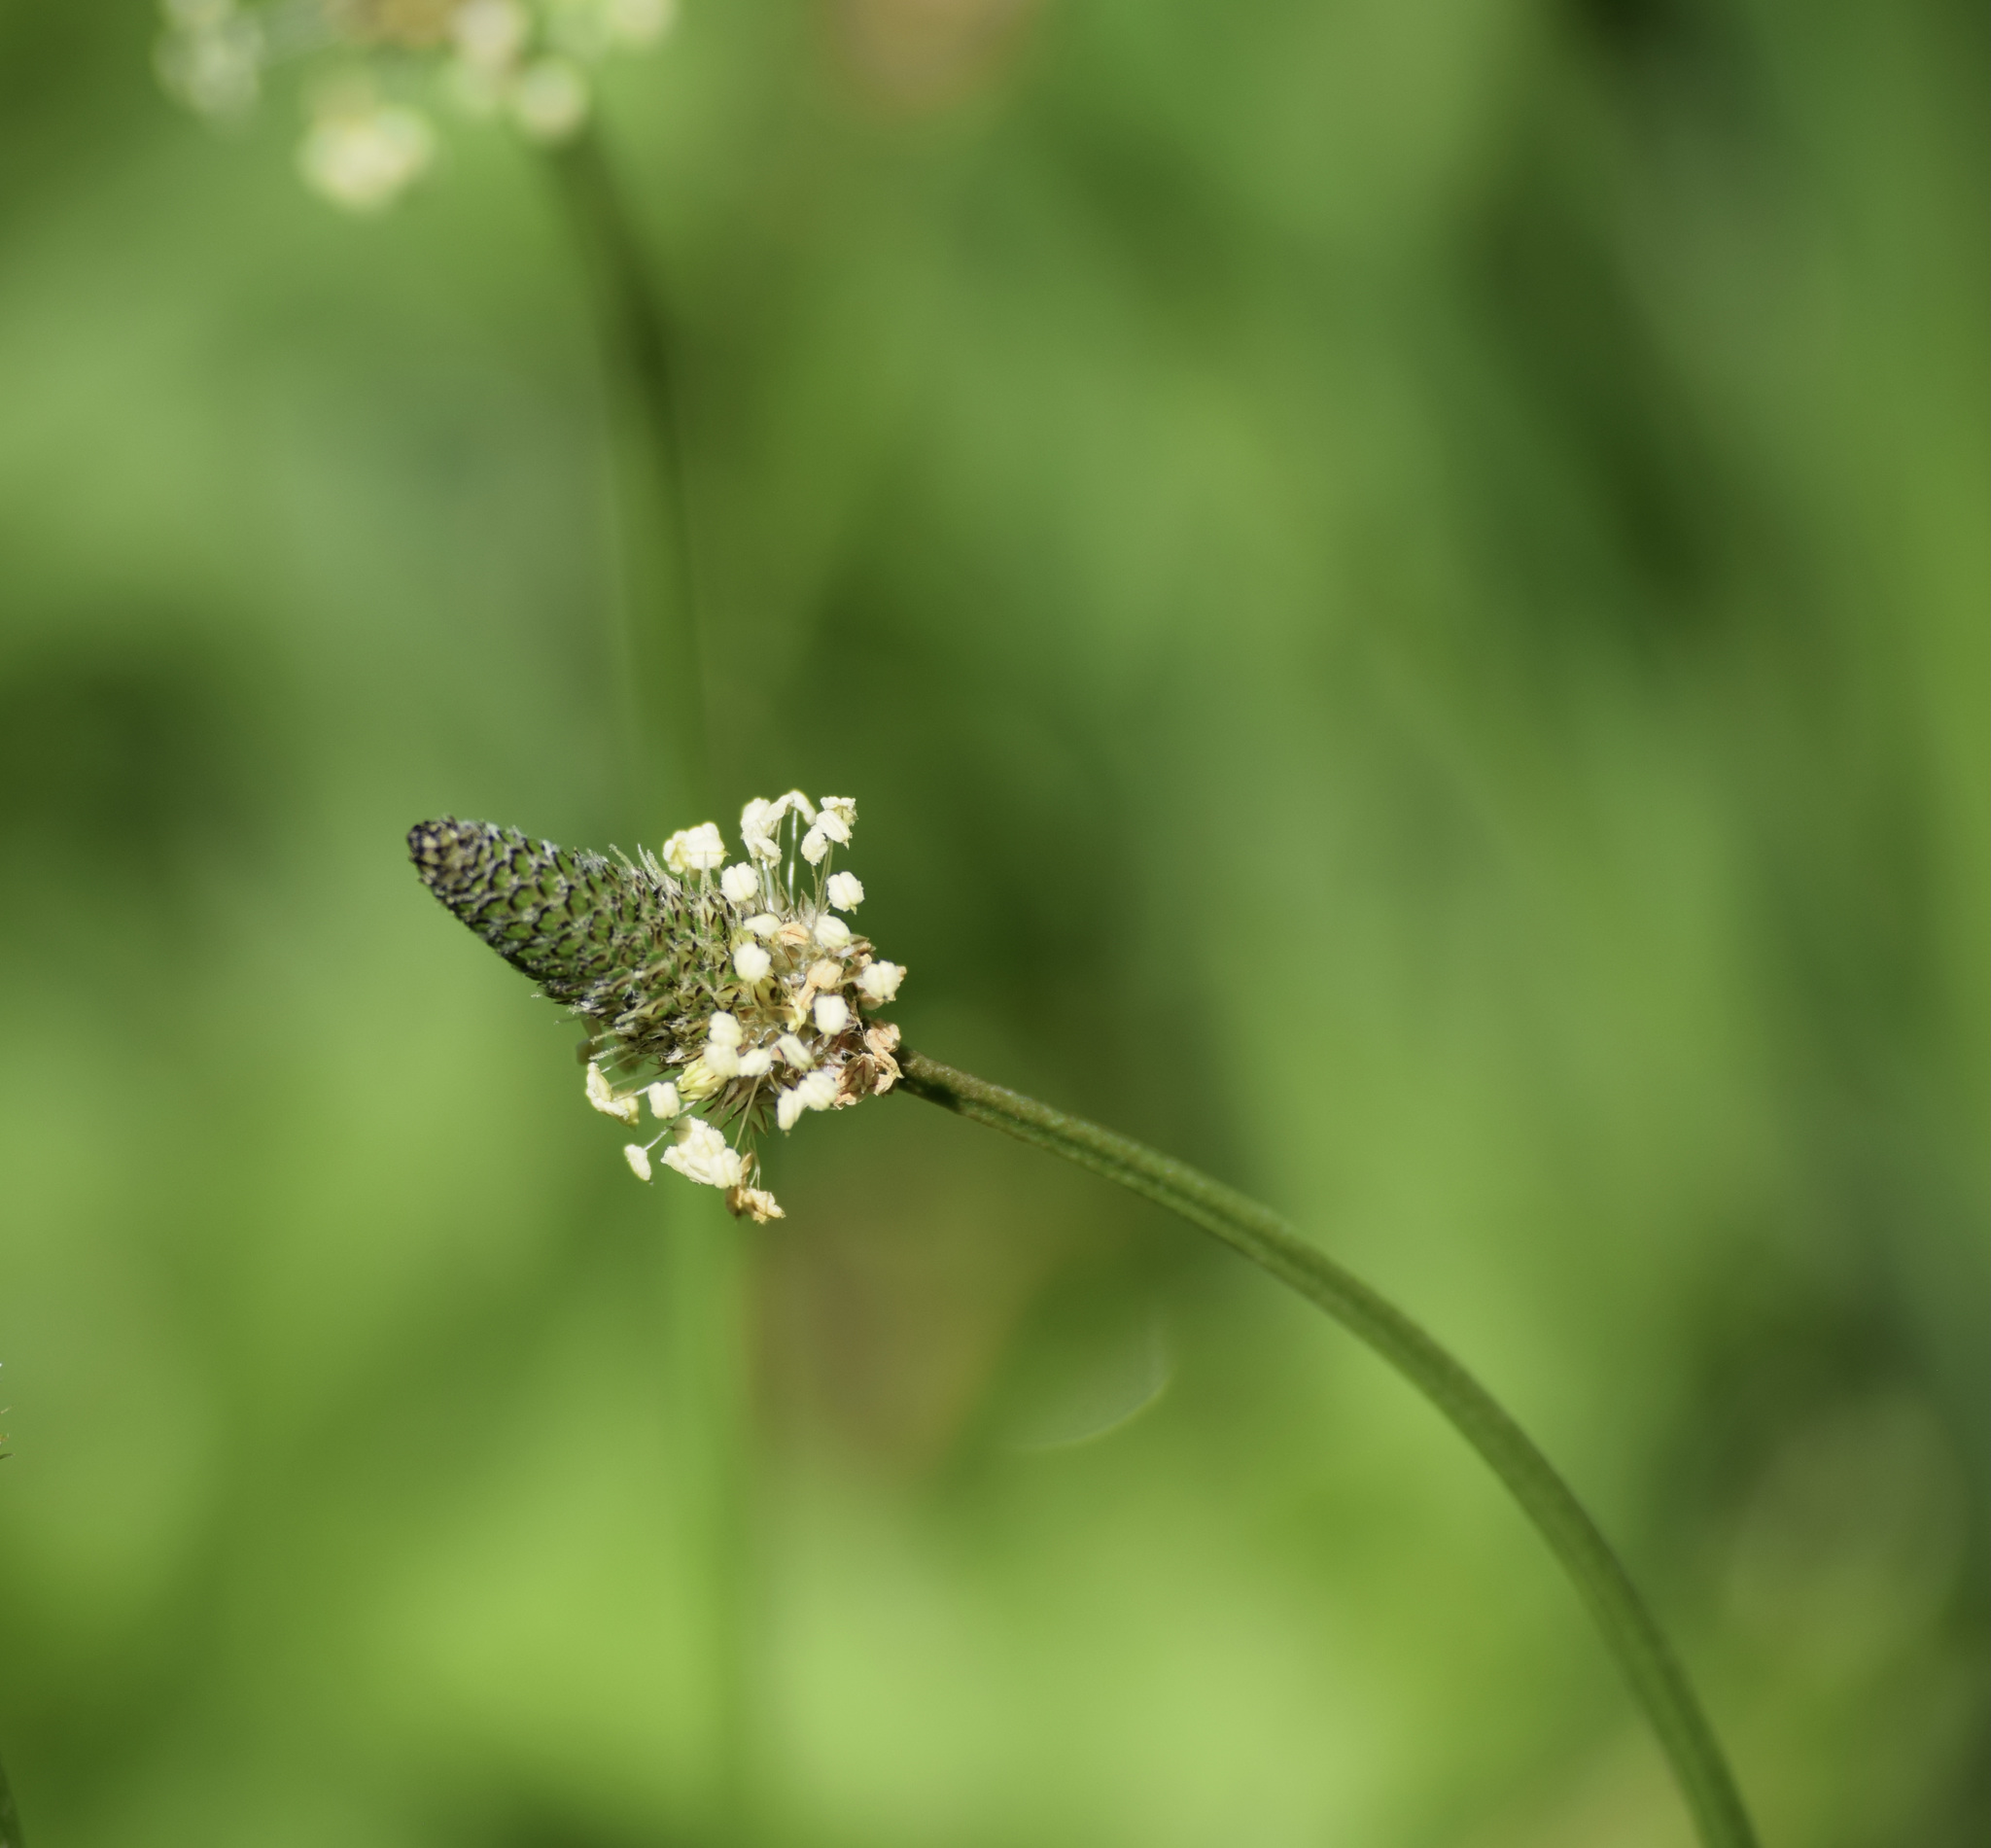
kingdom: Plantae
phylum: Tracheophyta
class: Magnoliopsida
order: Lamiales
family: Plantaginaceae
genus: Plantago
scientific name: Plantago lanceolata
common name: Ribwort plantain
